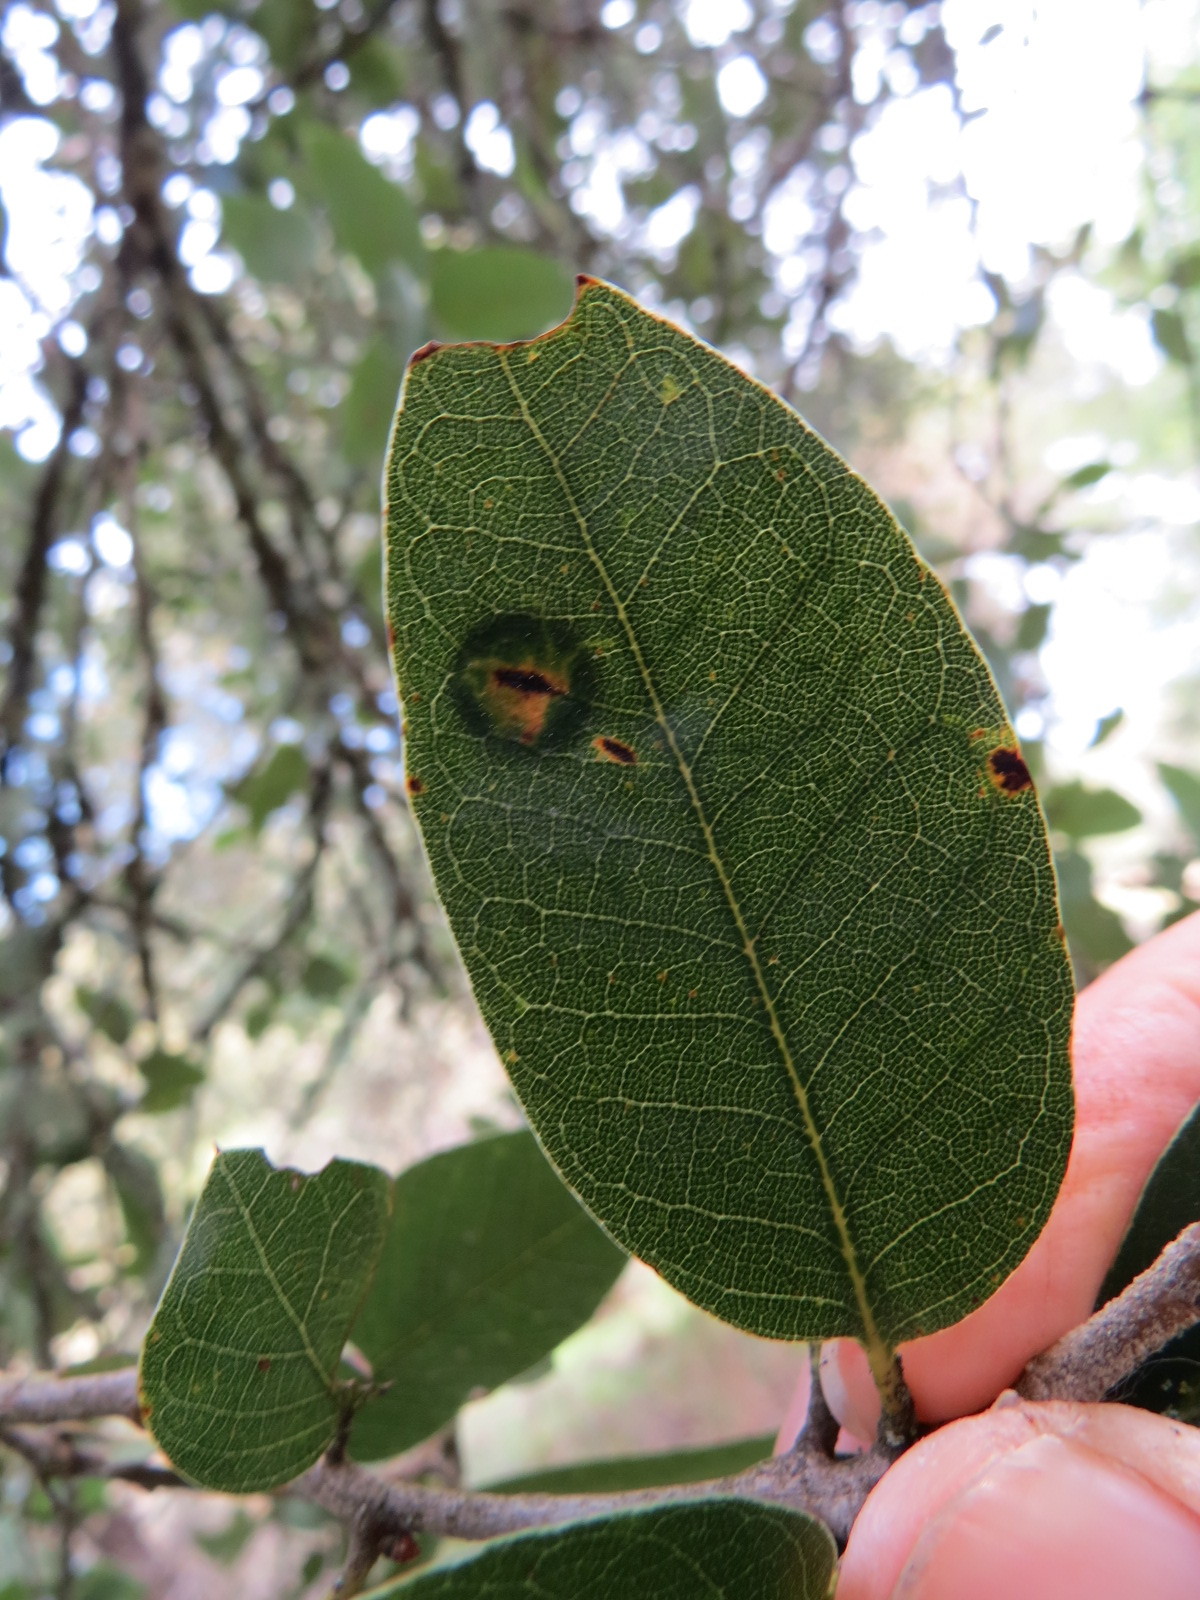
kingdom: Animalia
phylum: Arthropoda
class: Insecta
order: Hymenoptera
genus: Paracraspis
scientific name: Paracraspis
